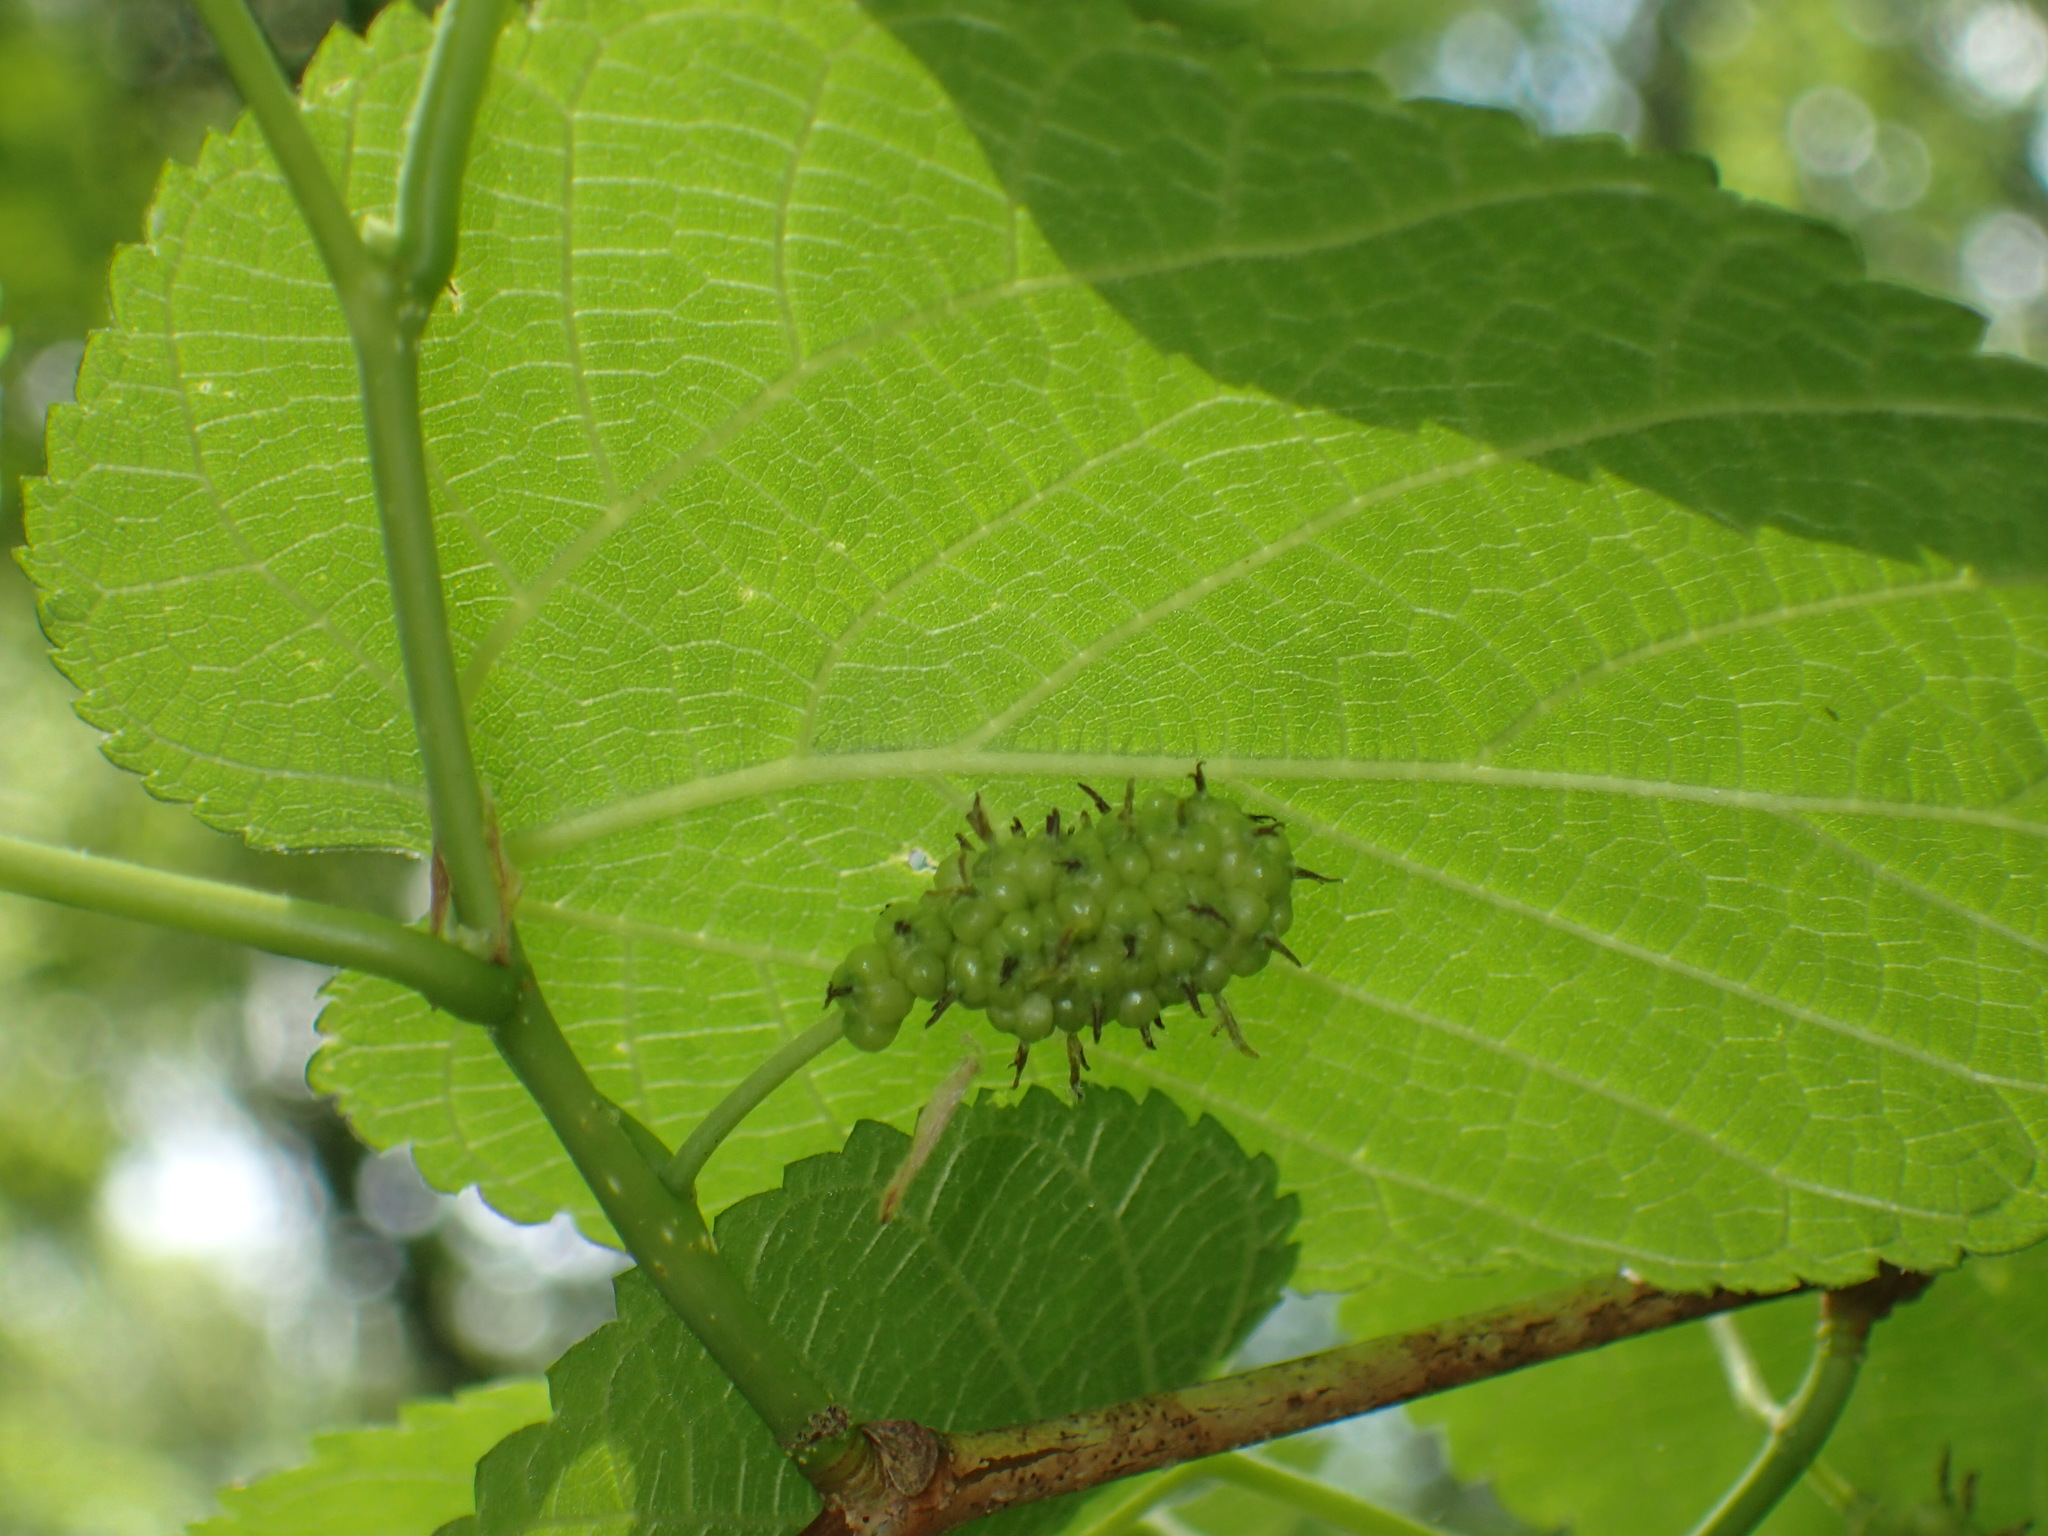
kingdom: Plantae
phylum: Tracheophyta
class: Magnoliopsida
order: Rosales
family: Moraceae
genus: Morus
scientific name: Morus rubra
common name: Red mulberry
